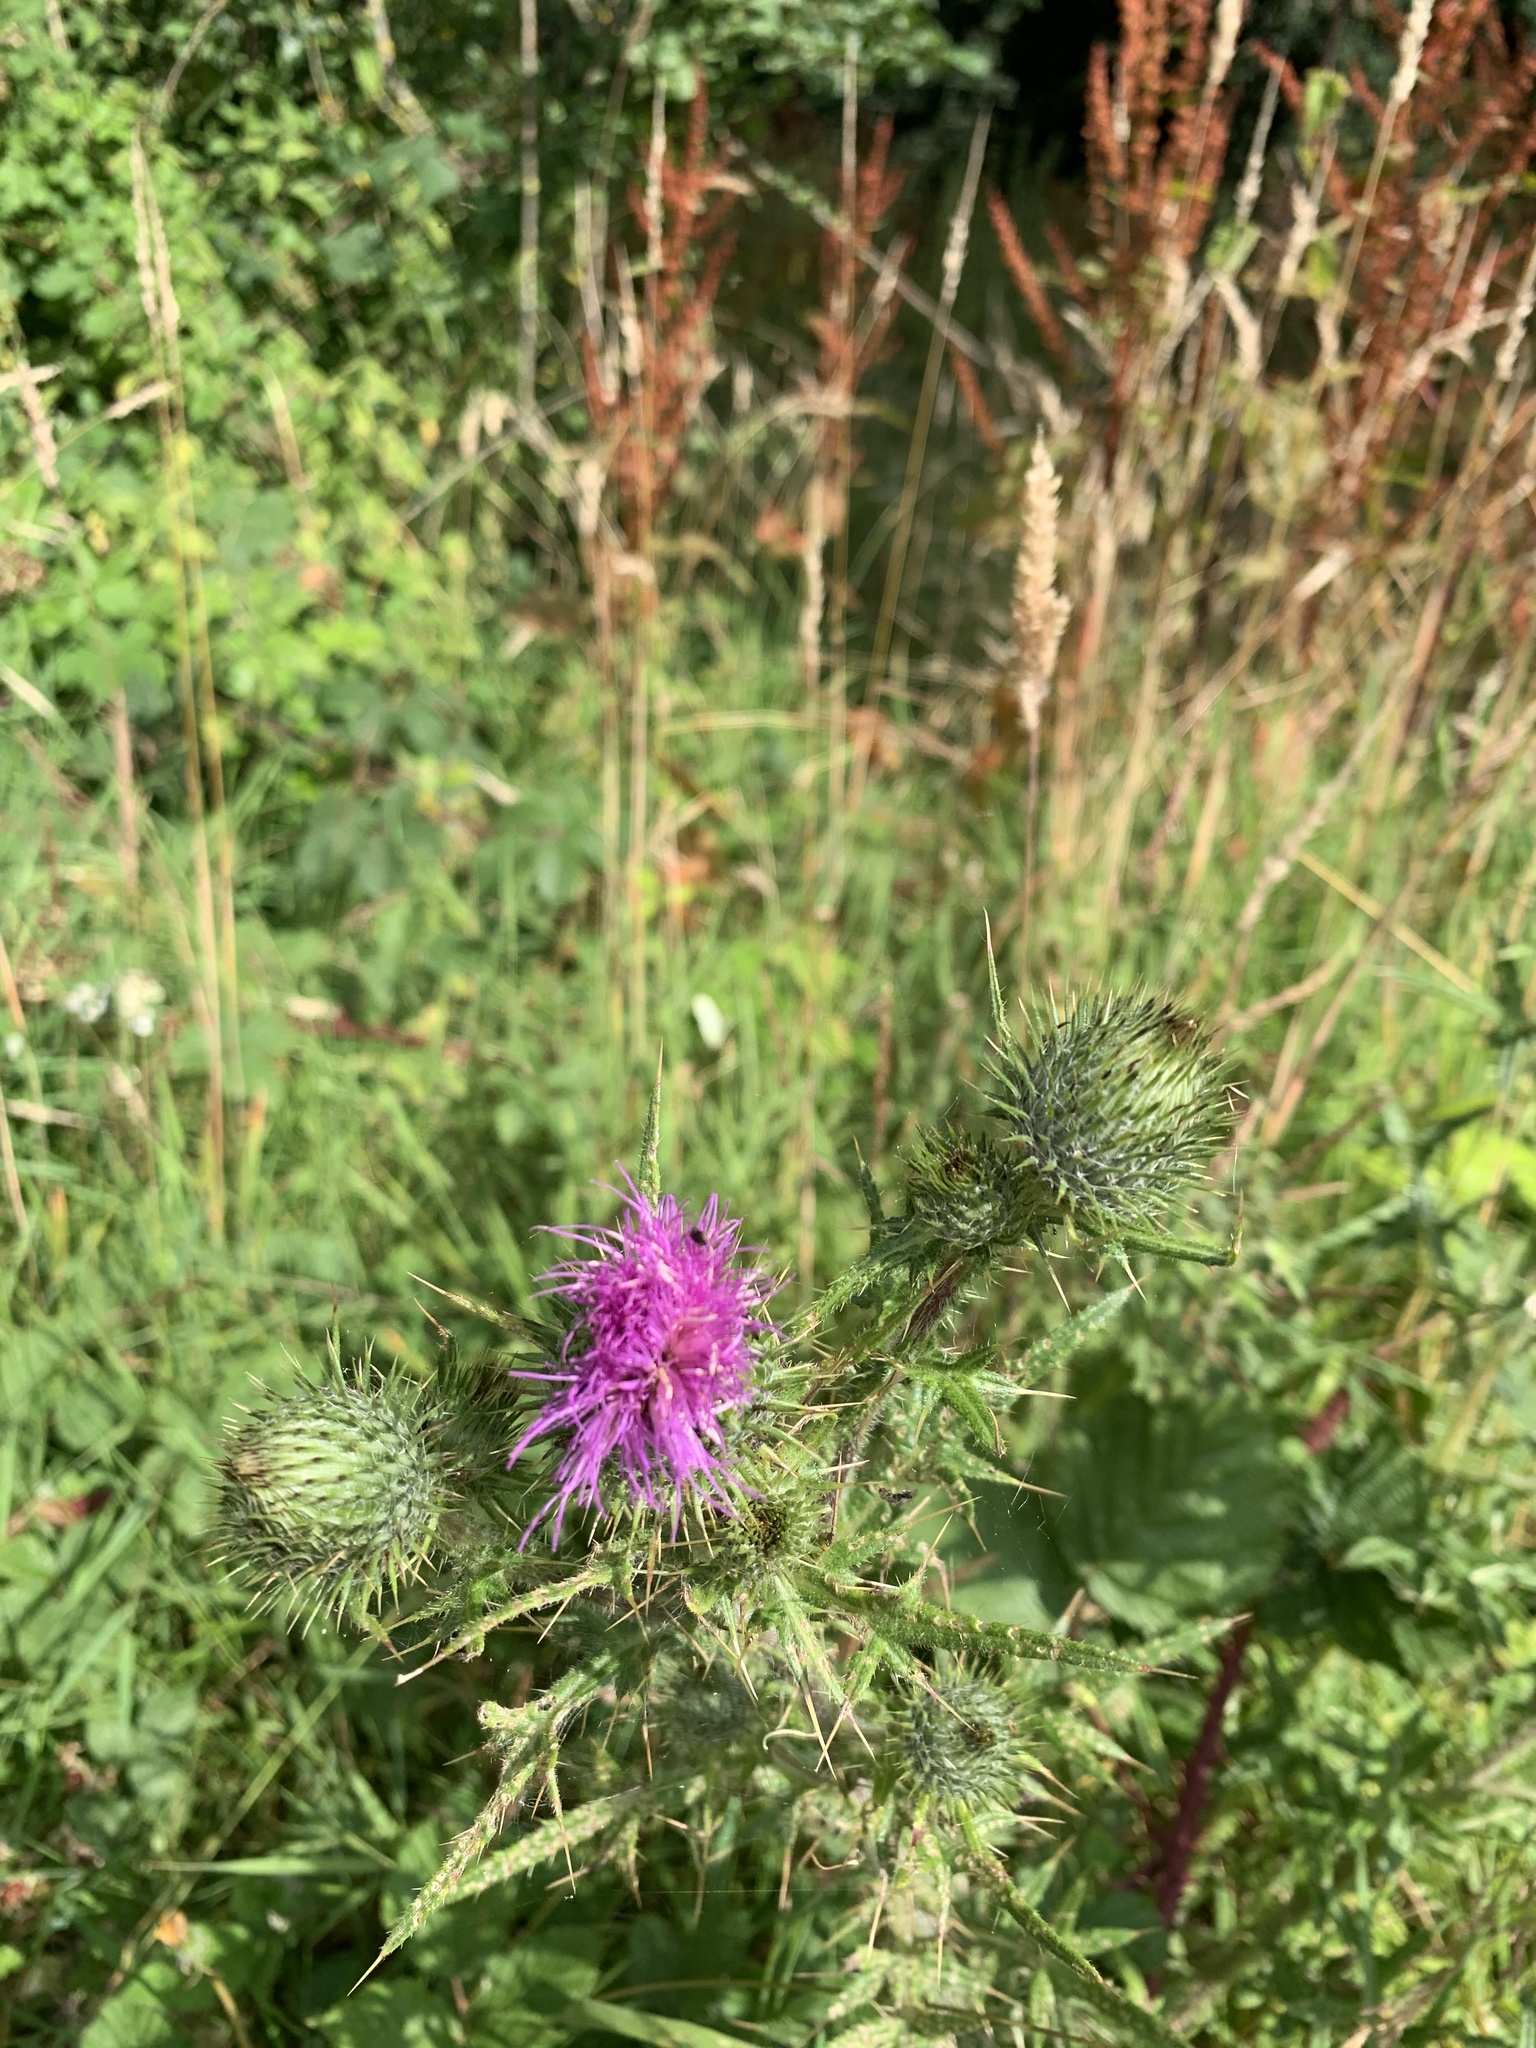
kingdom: Plantae
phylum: Tracheophyta
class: Magnoliopsida
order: Asterales
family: Asteraceae
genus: Cirsium
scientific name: Cirsium vulgare
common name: Bull thistle
